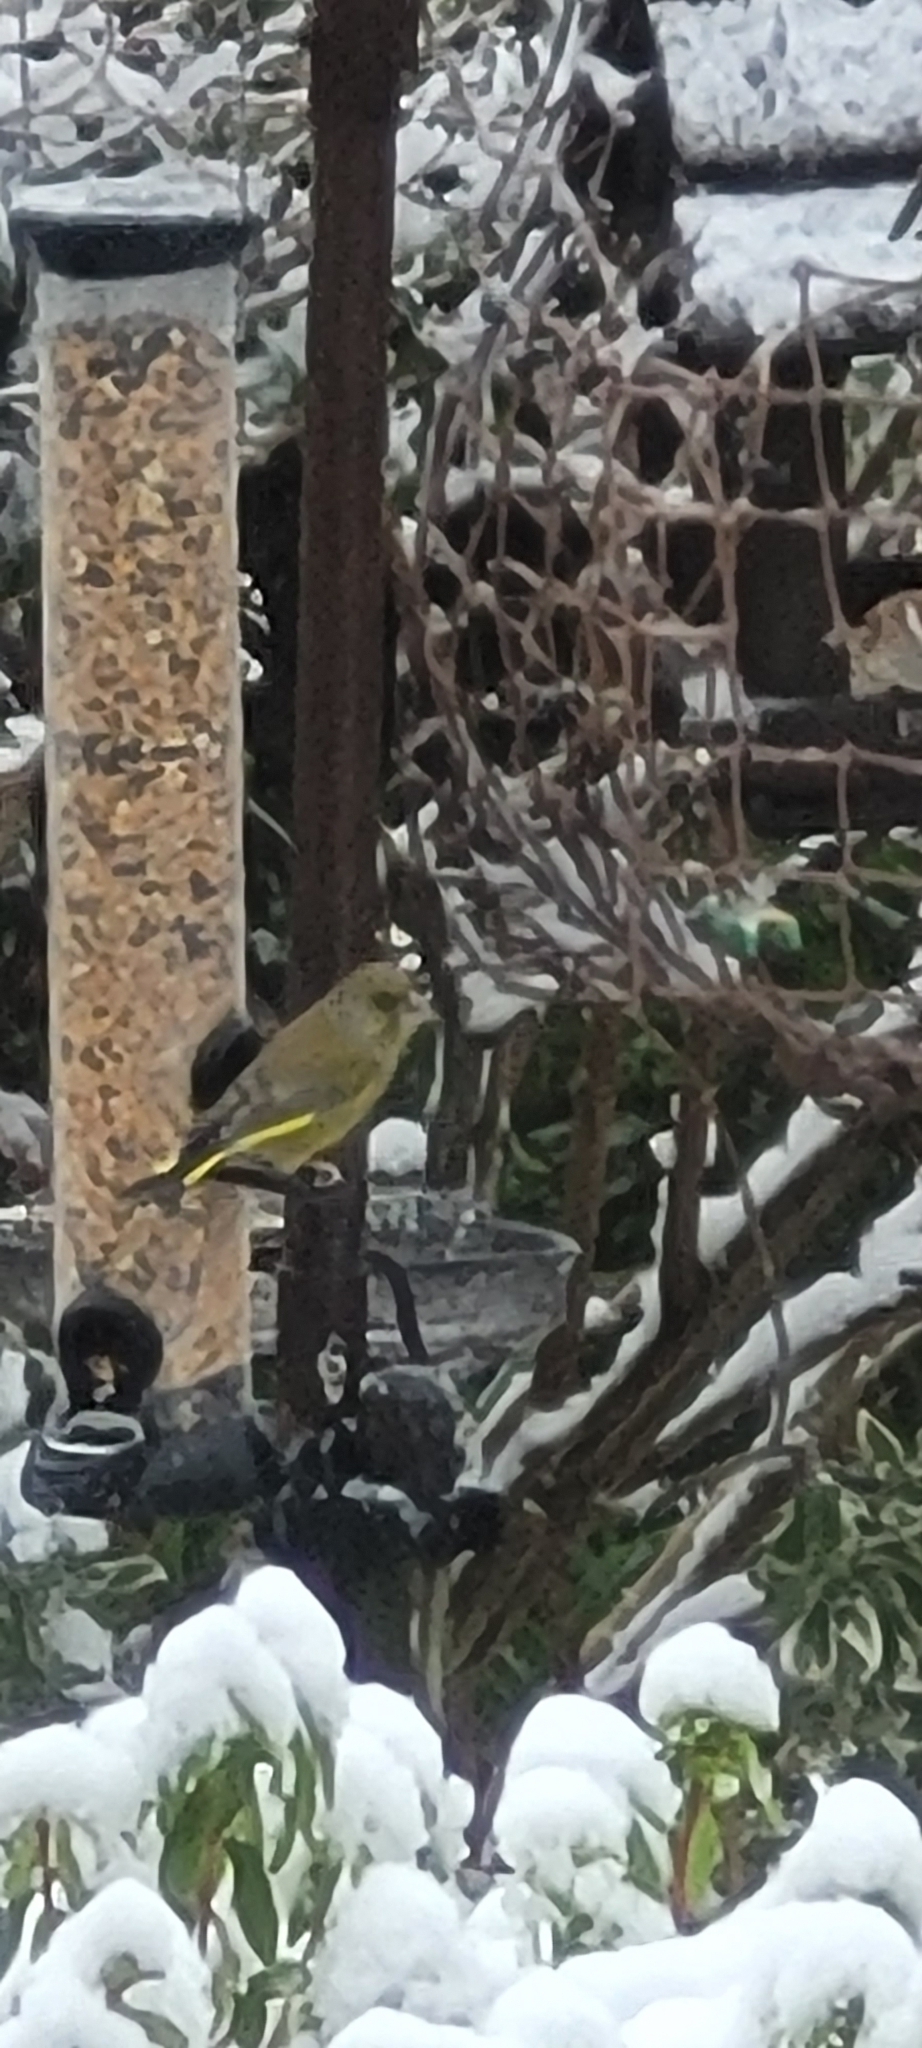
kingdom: Plantae
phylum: Tracheophyta
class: Liliopsida
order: Poales
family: Poaceae
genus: Chloris
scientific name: Chloris chloris
